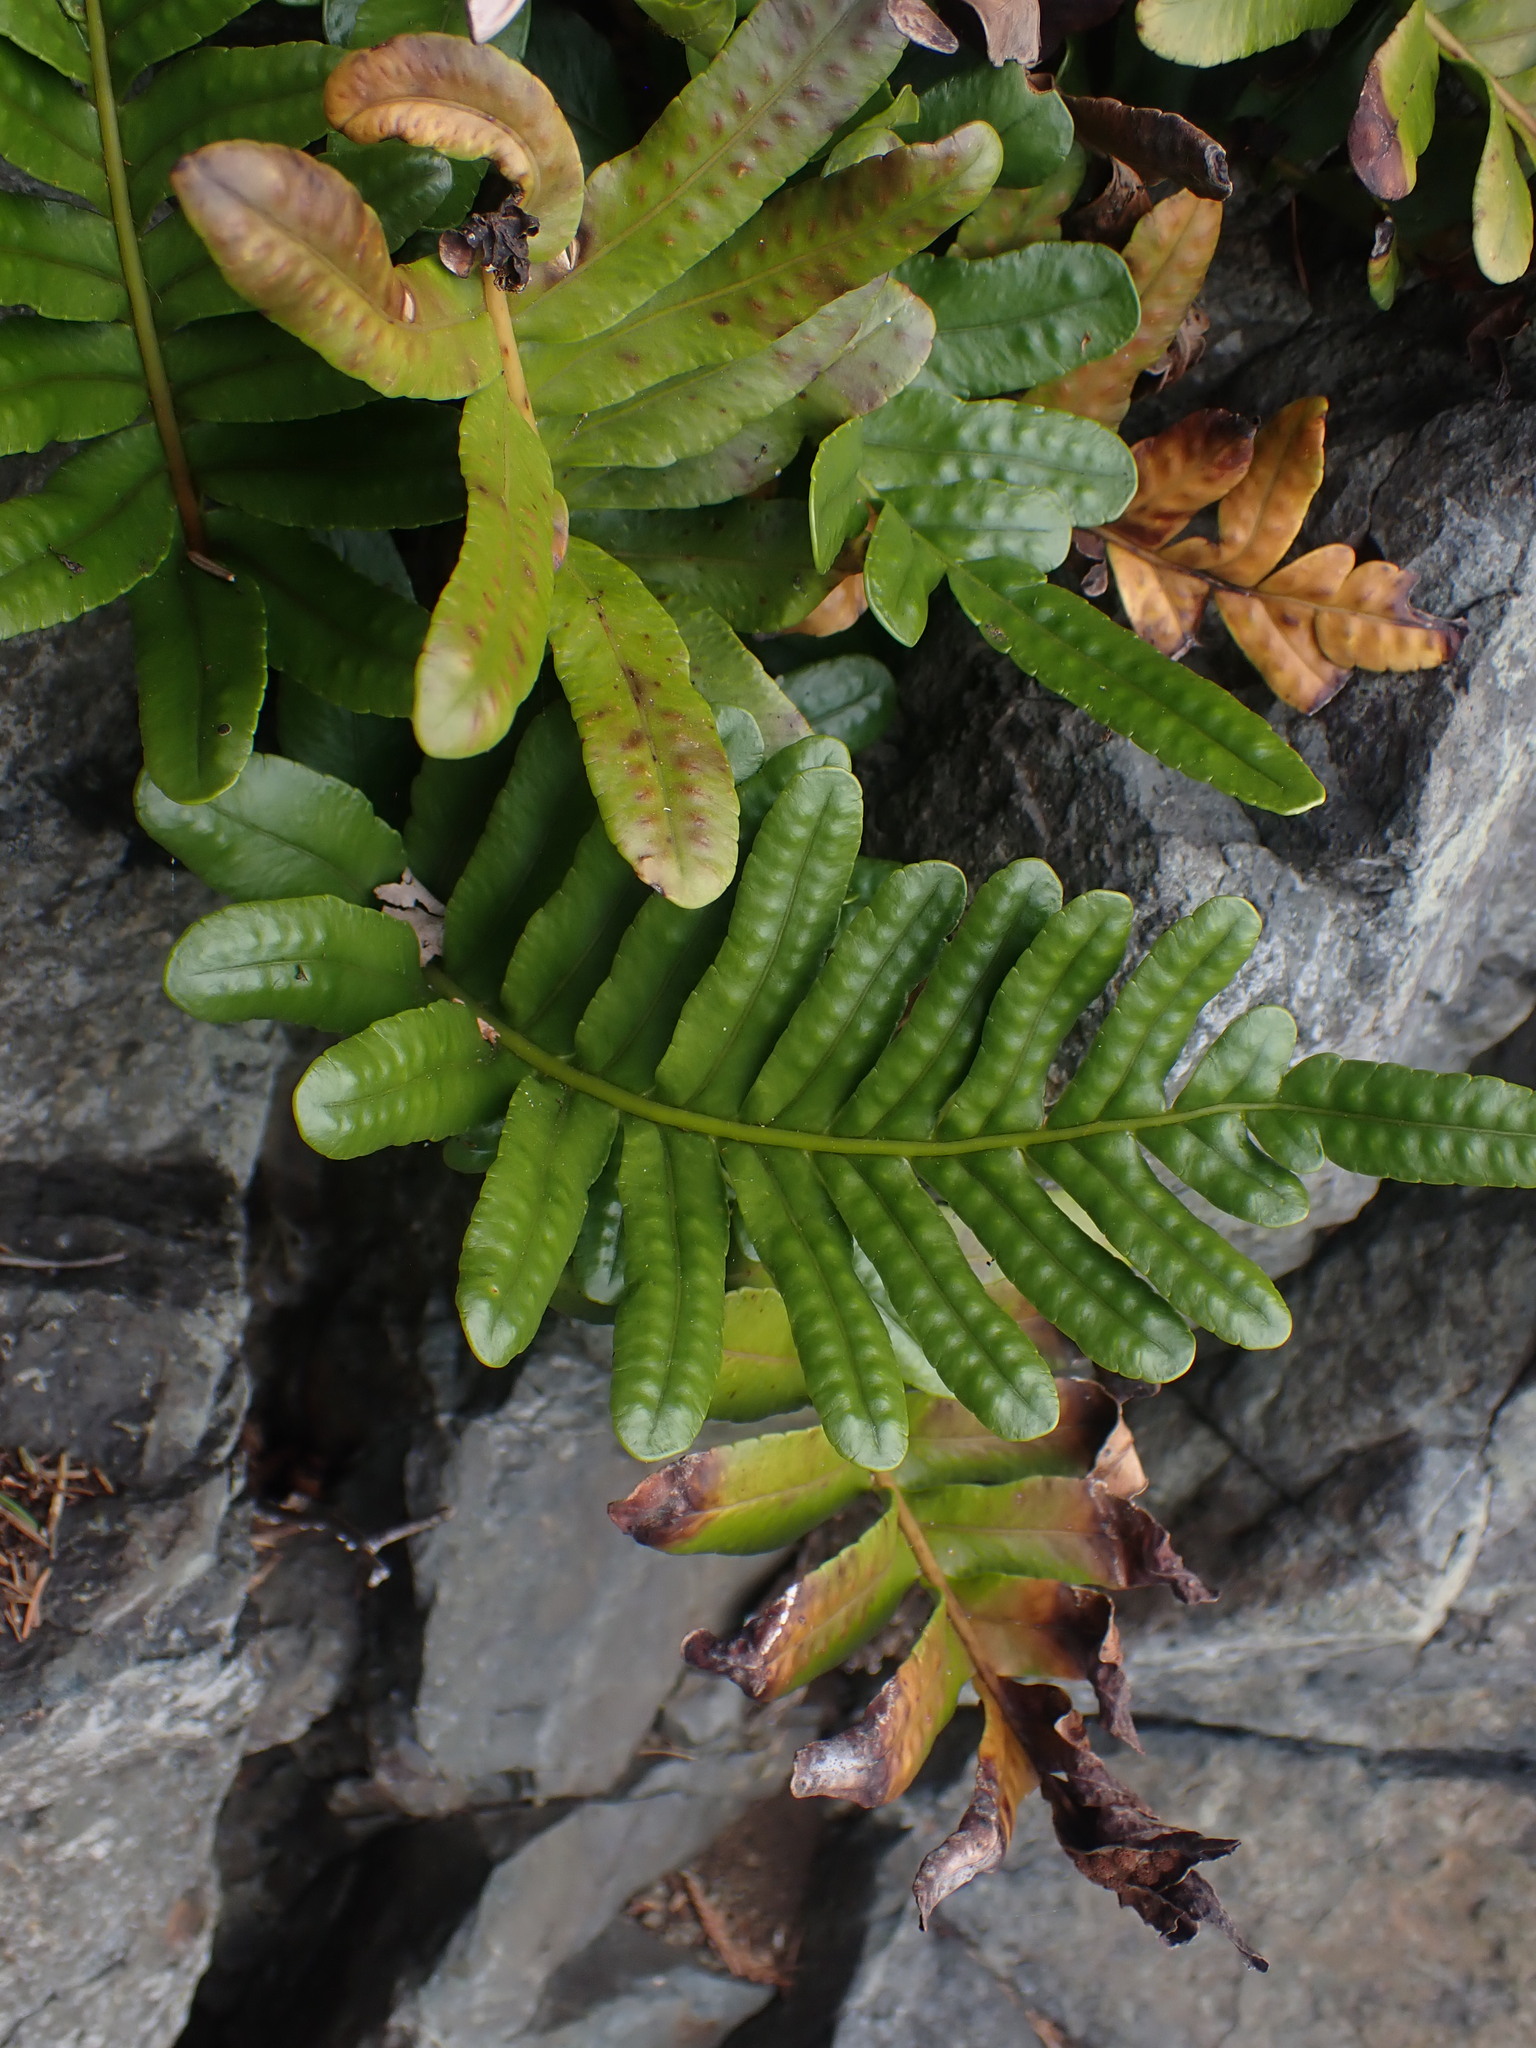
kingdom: Plantae
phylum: Tracheophyta
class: Polypodiopsida
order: Polypodiales
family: Polypodiaceae
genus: Polypodium
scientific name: Polypodium scouleri
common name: Scouler's polypody
